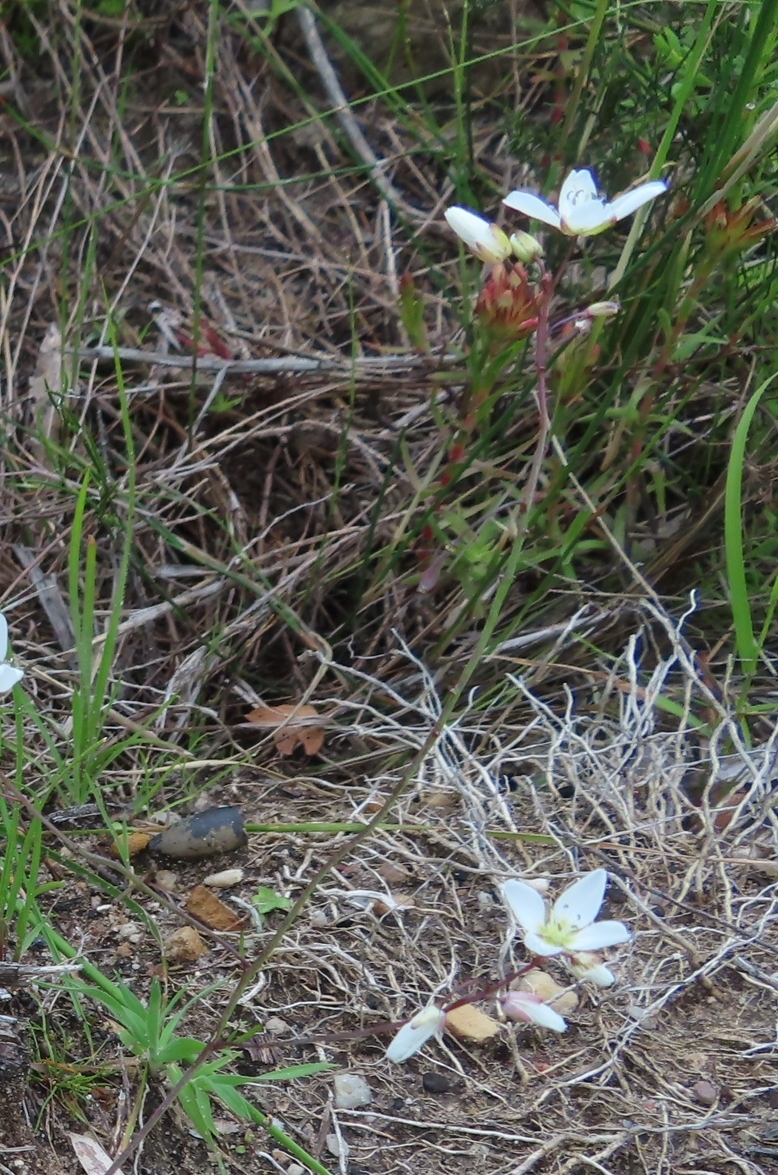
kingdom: Plantae
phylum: Tracheophyta
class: Magnoliopsida
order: Brassicales
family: Brassicaceae
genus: Heliophila
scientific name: Heliophila meyeri
